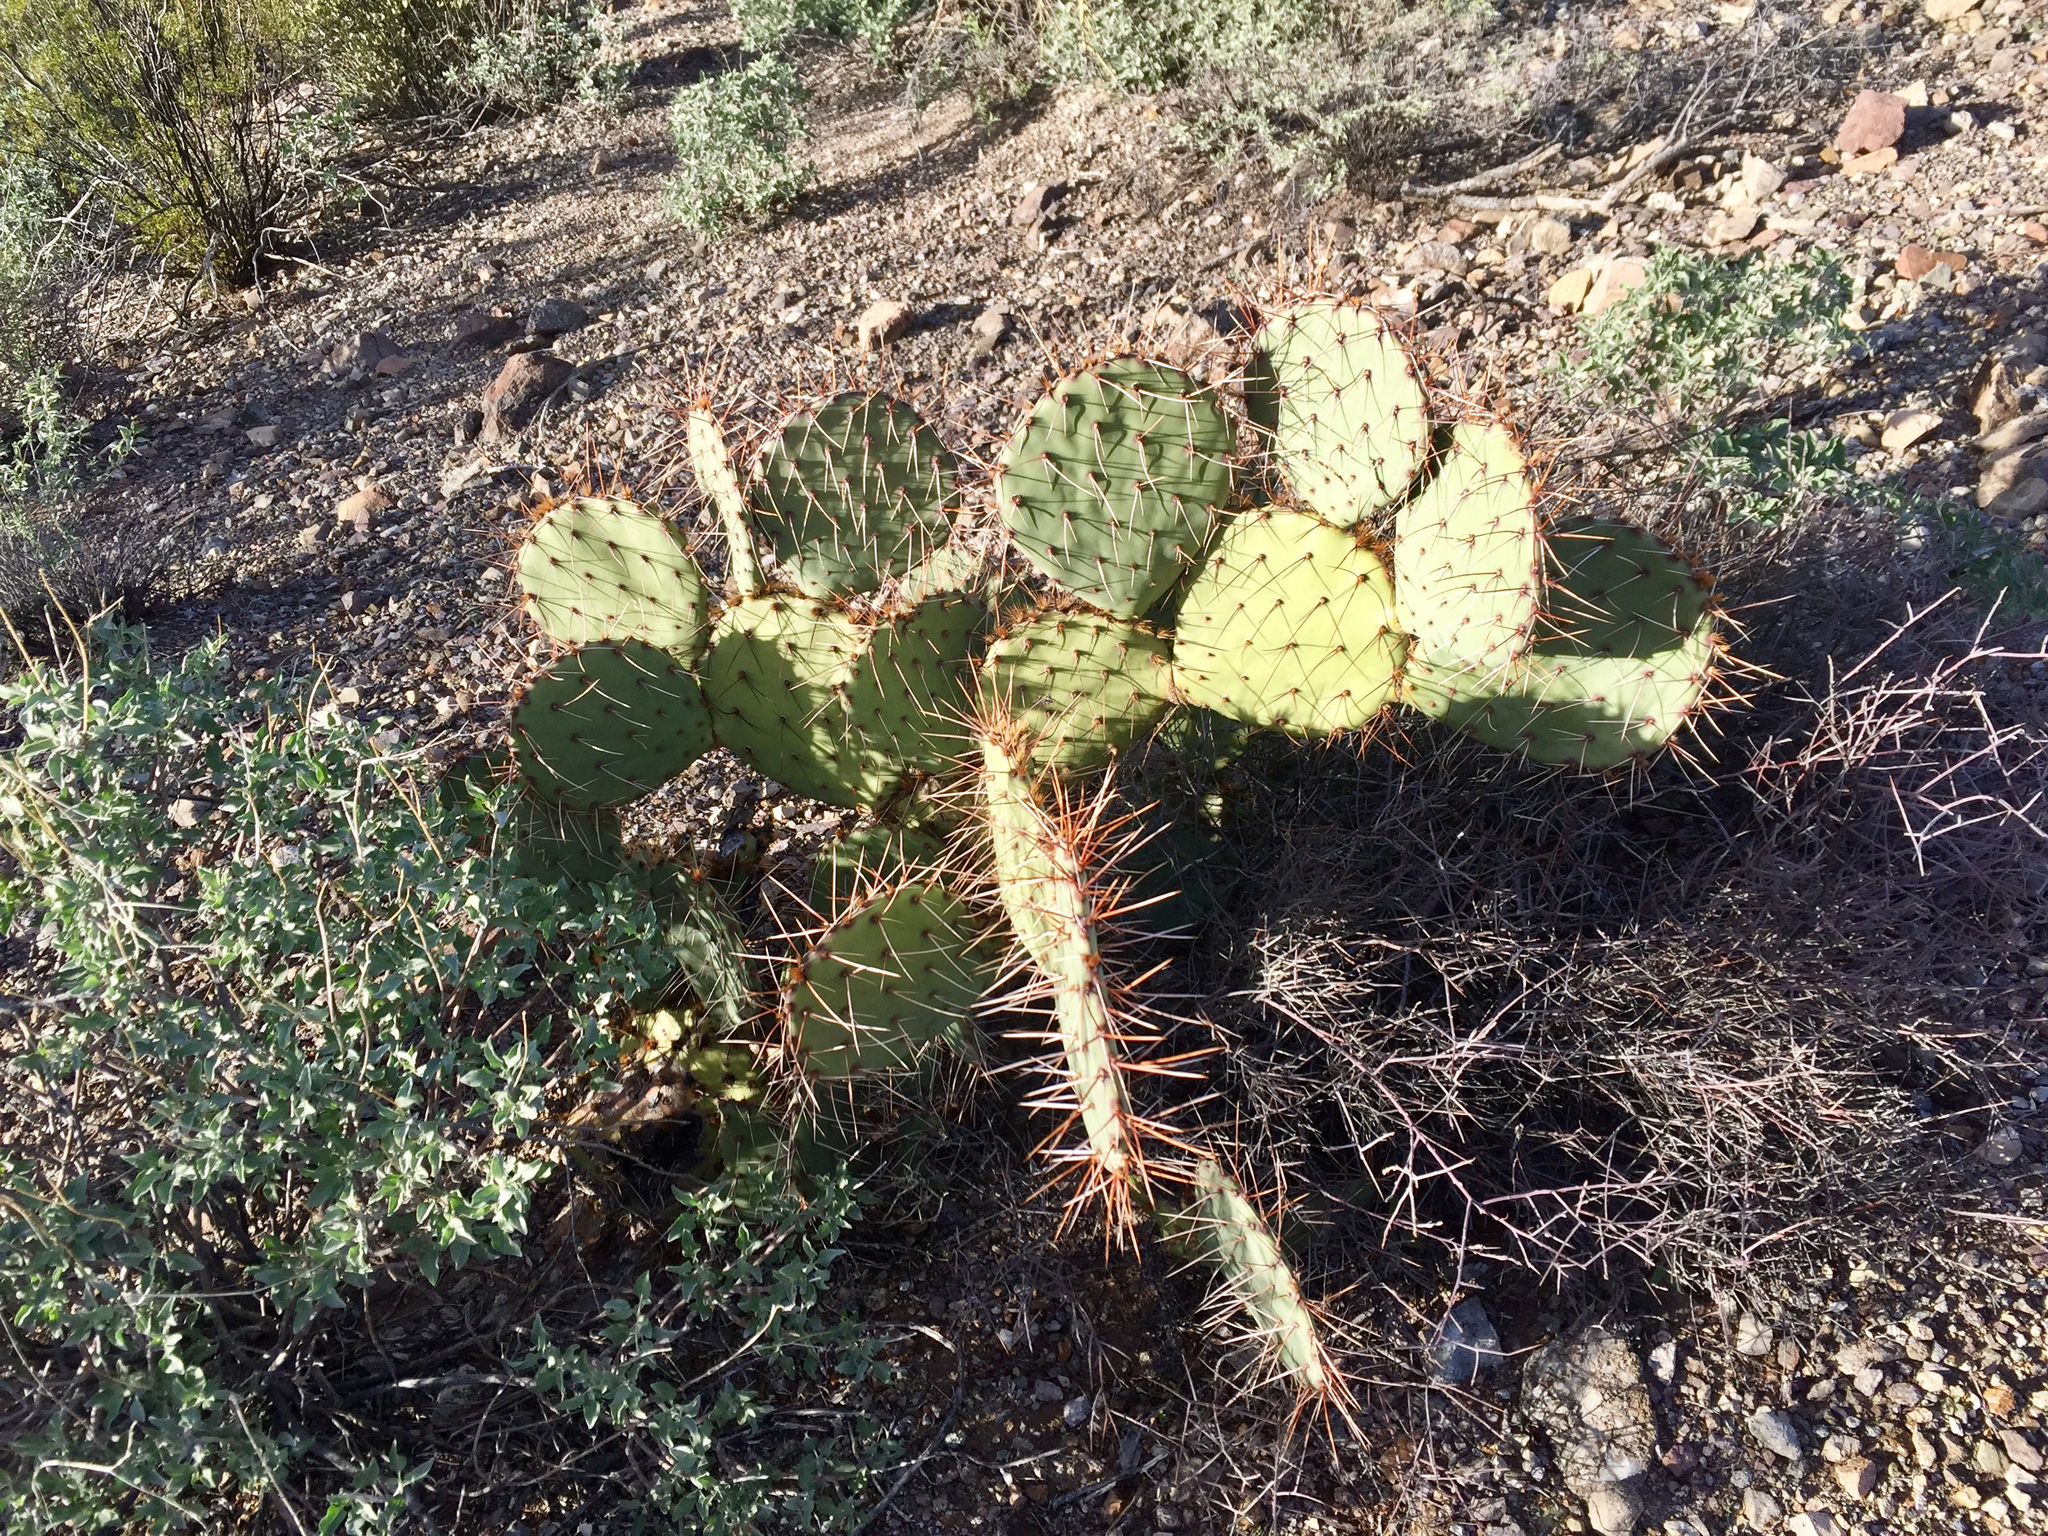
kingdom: Plantae
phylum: Tracheophyta
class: Magnoliopsida
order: Caryophyllales
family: Cactaceae
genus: Opuntia
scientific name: Opuntia engelmannii
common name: Cactus-apple
